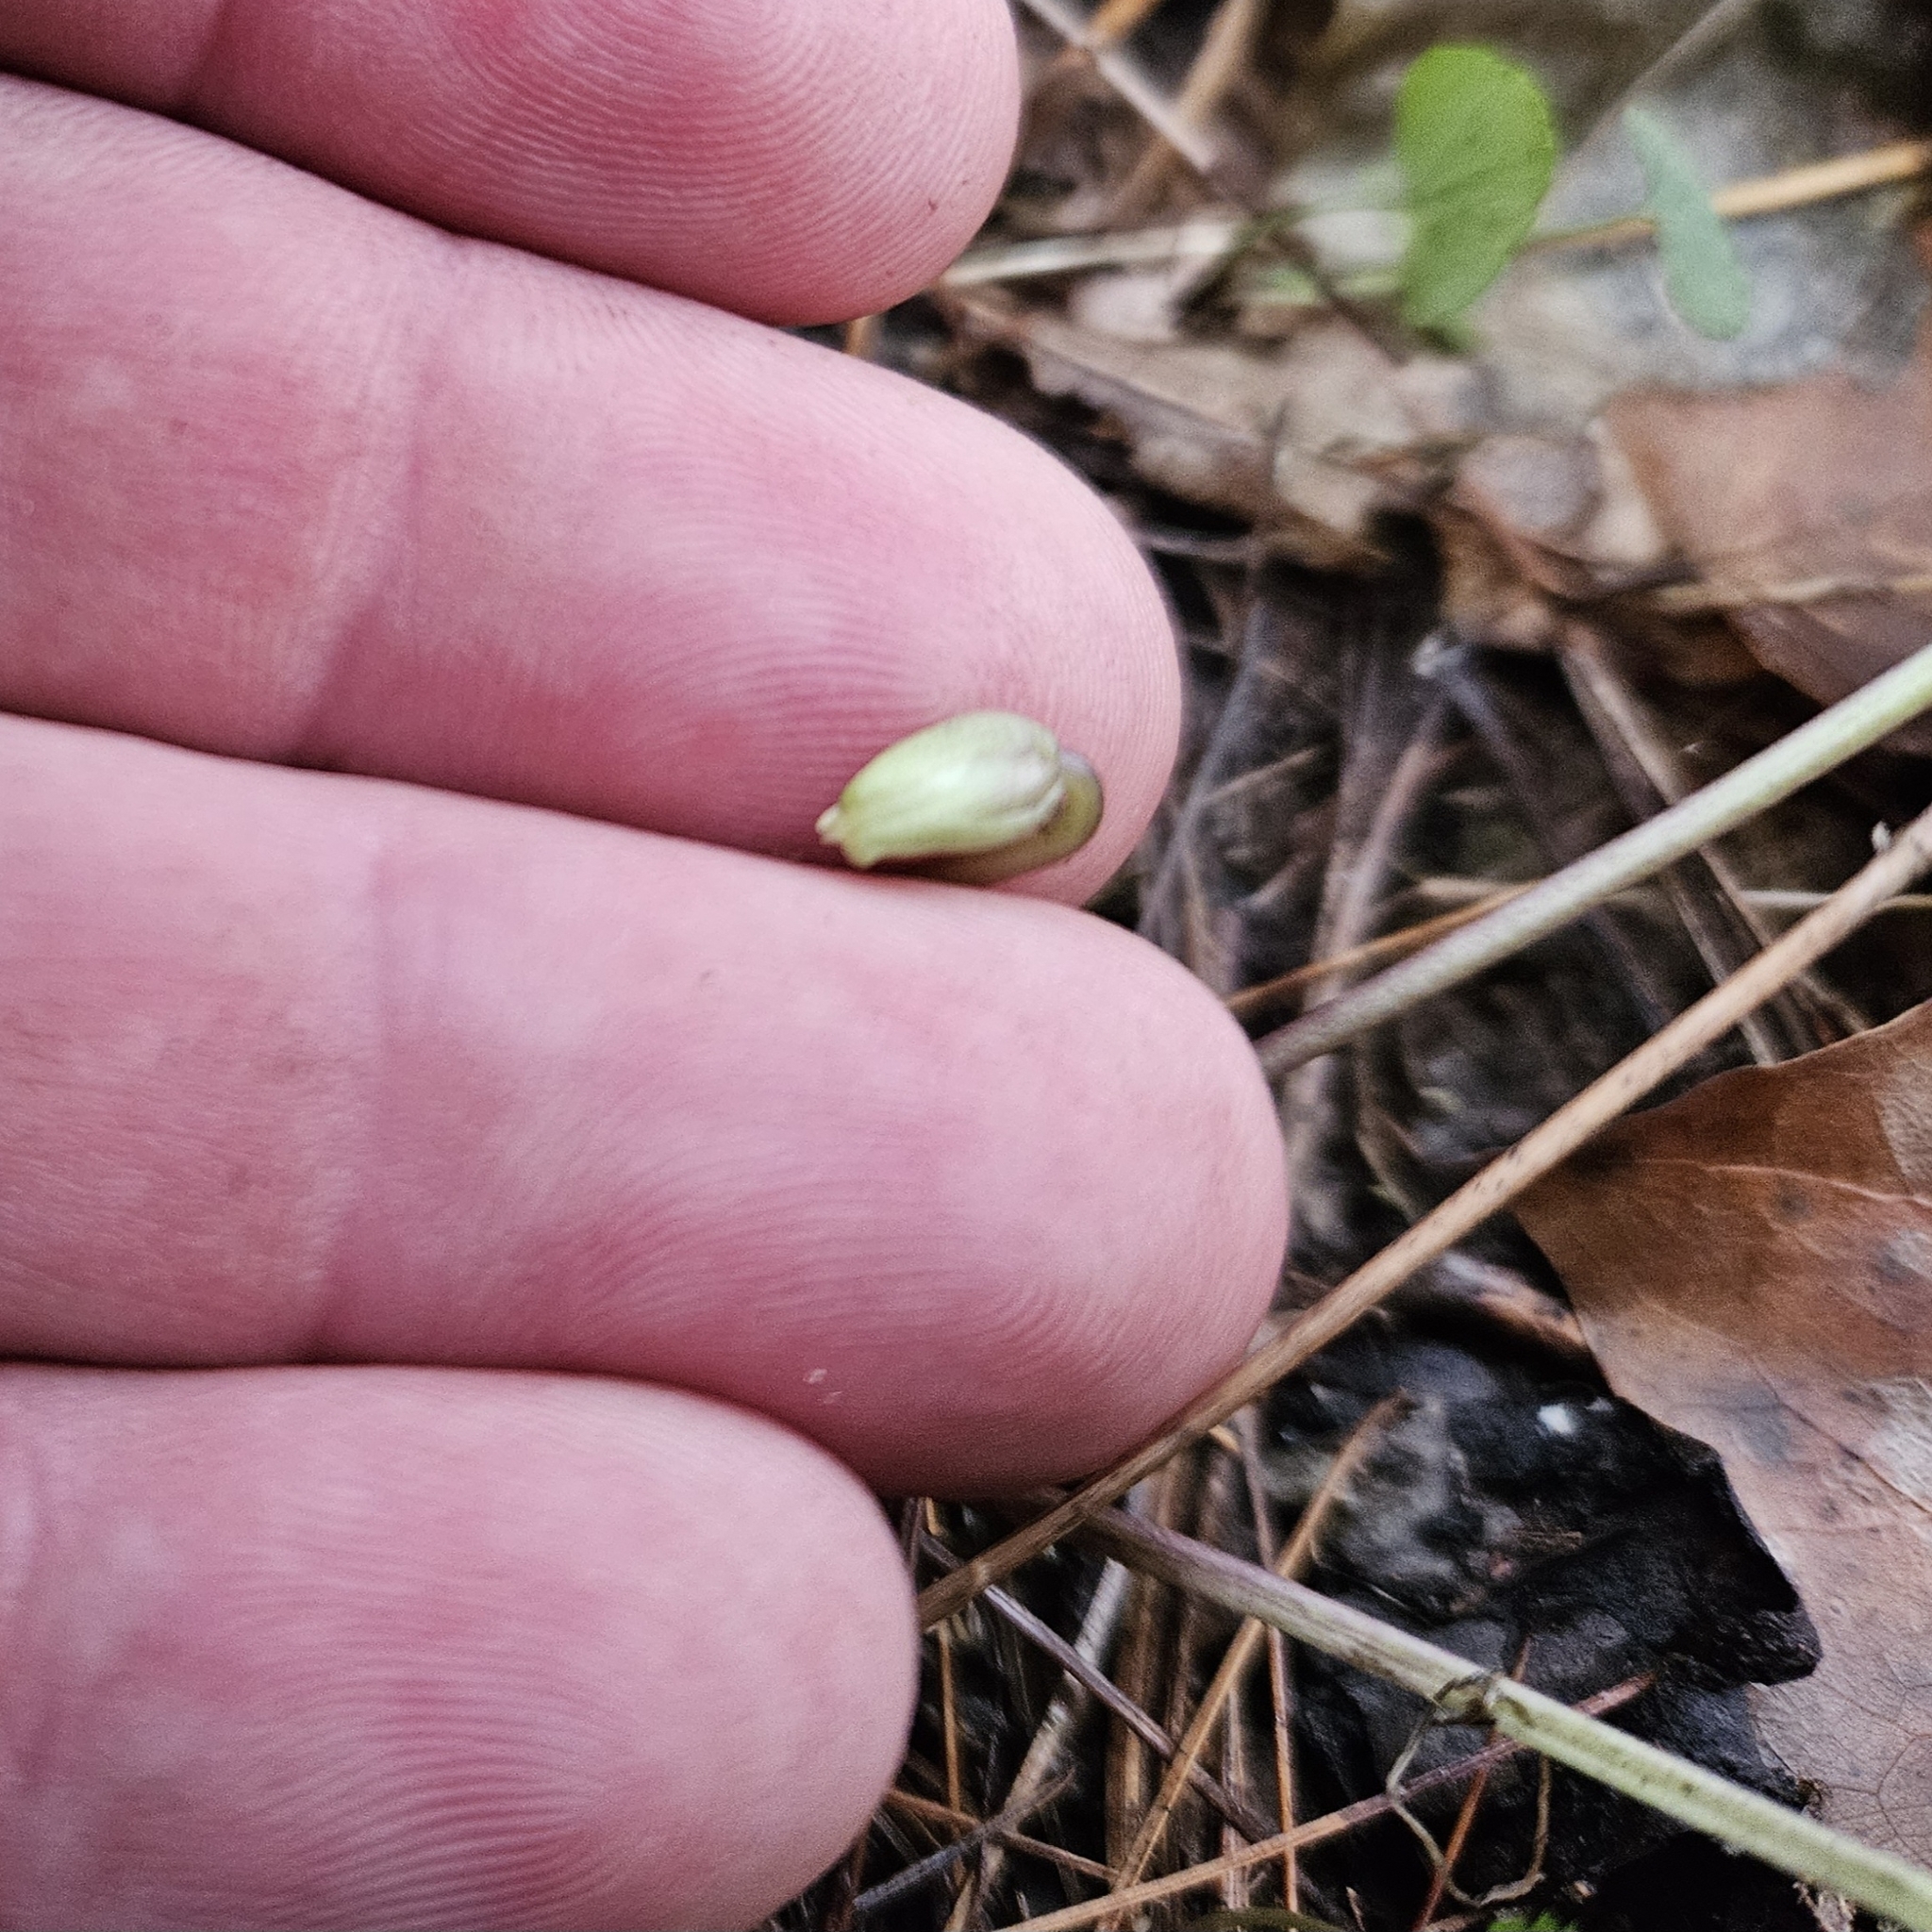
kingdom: Plantae
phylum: Tracheophyta
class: Magnoliopsida
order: Malpighiales
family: Violaceae
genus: Viola
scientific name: Viola affinis
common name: Leconte's violet
